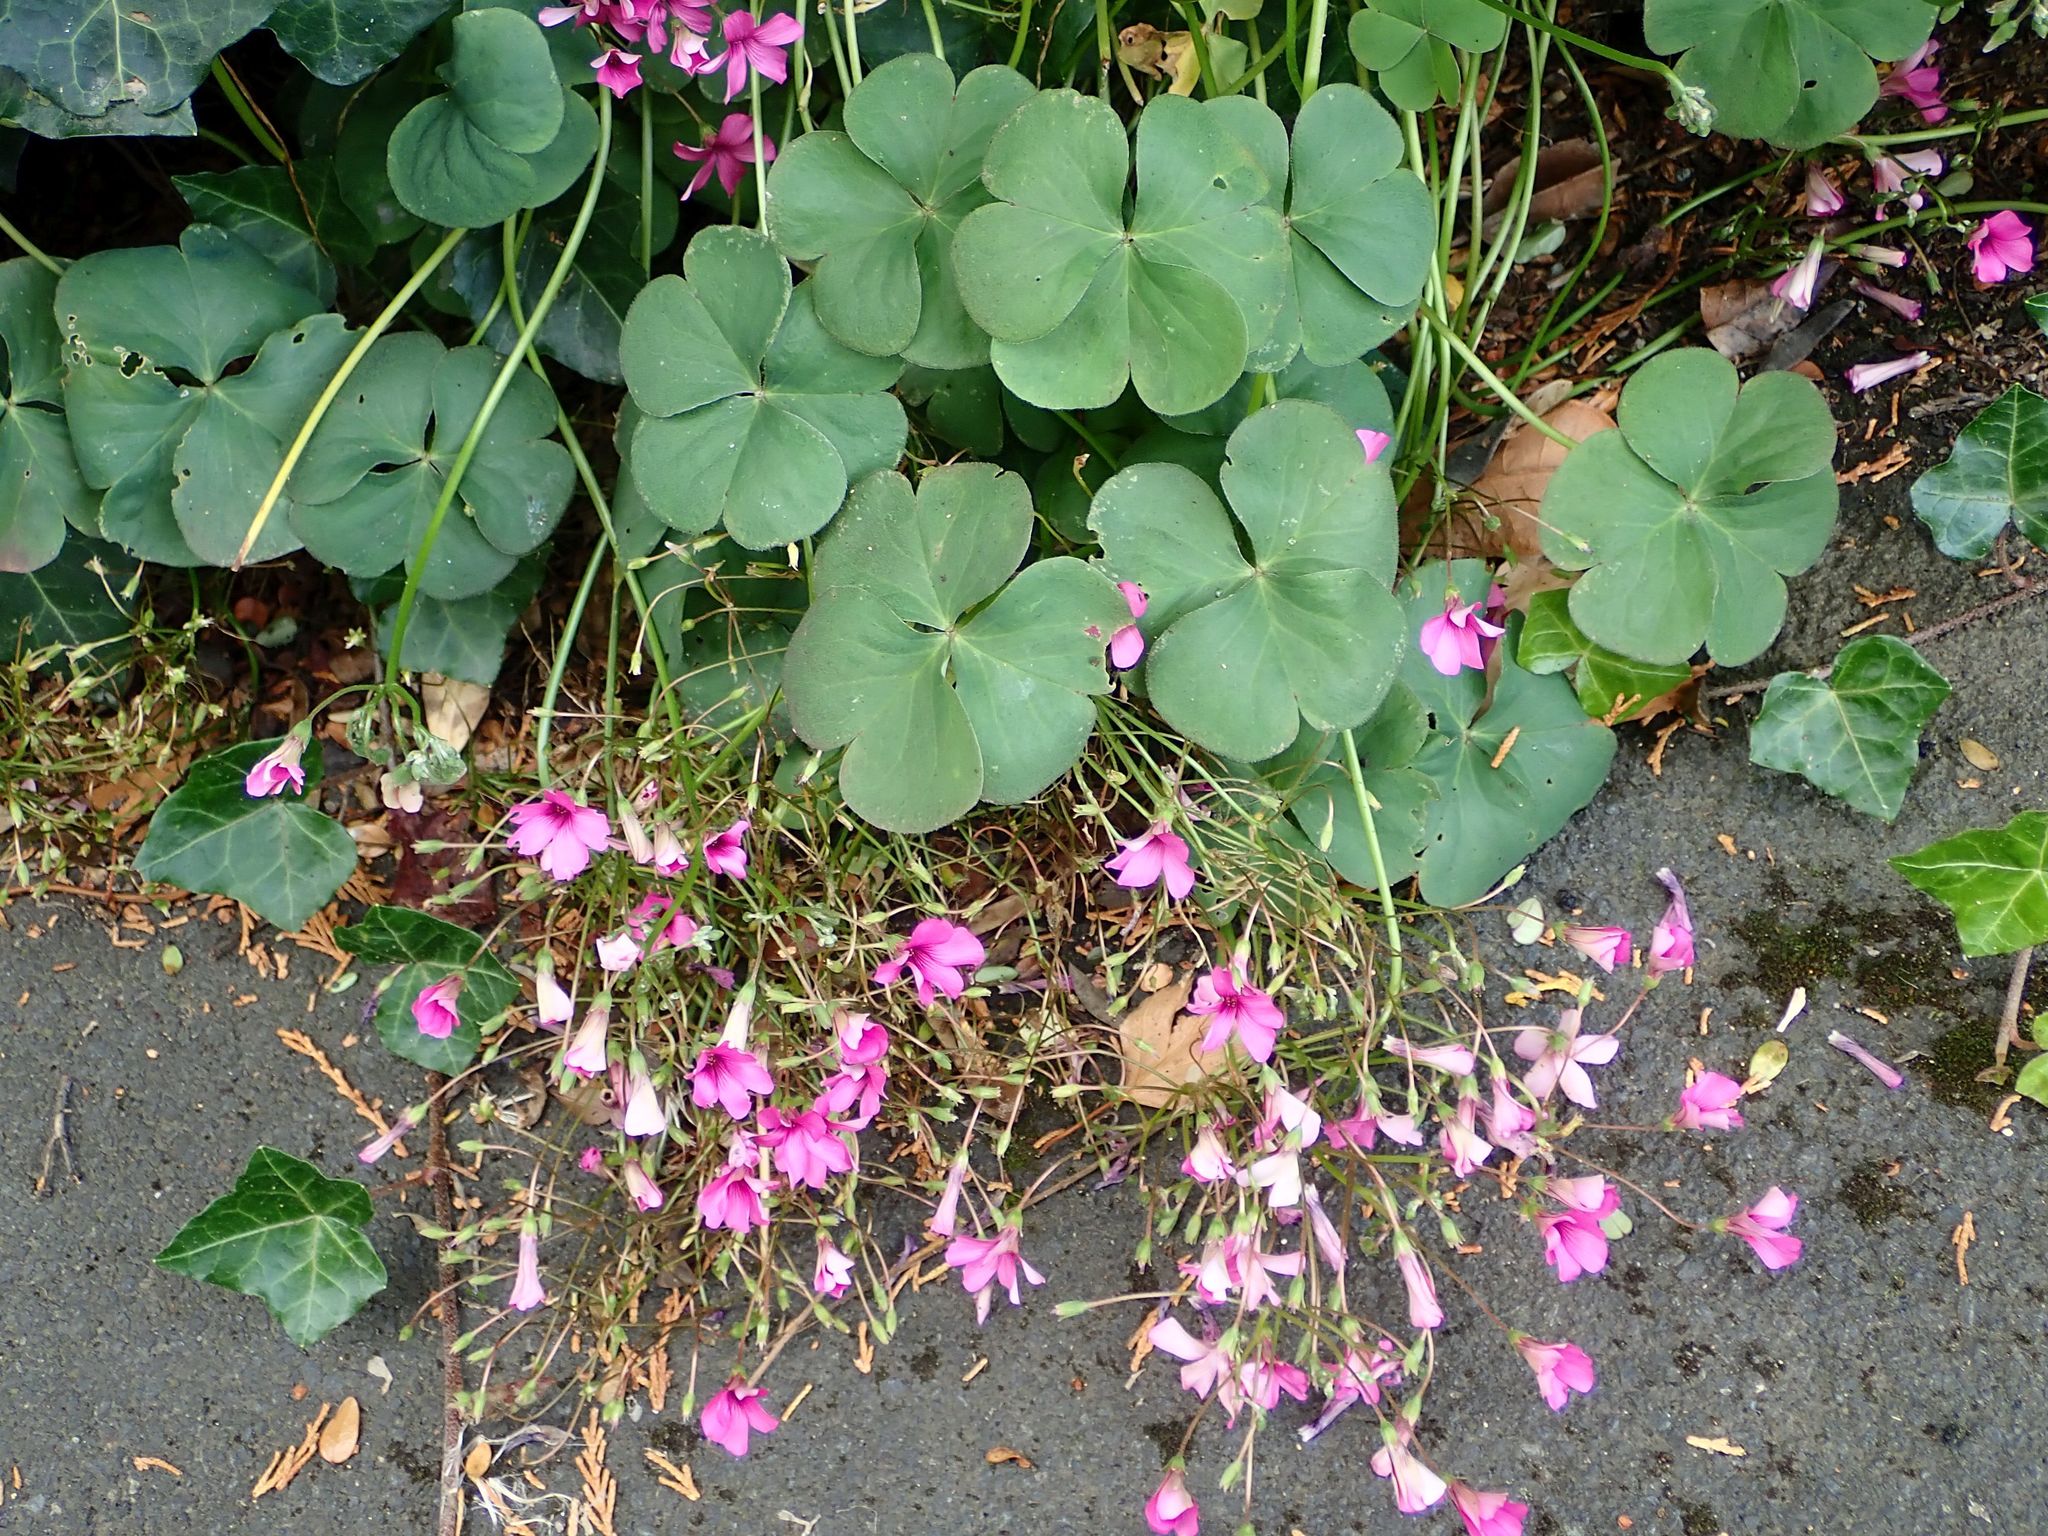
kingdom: Plantae
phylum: Tracheophyta
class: Magnoliopsida
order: Oxalidales
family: Oxalidaceae
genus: Oxalis
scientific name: Oxalis articulata
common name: Pink-sorrel
